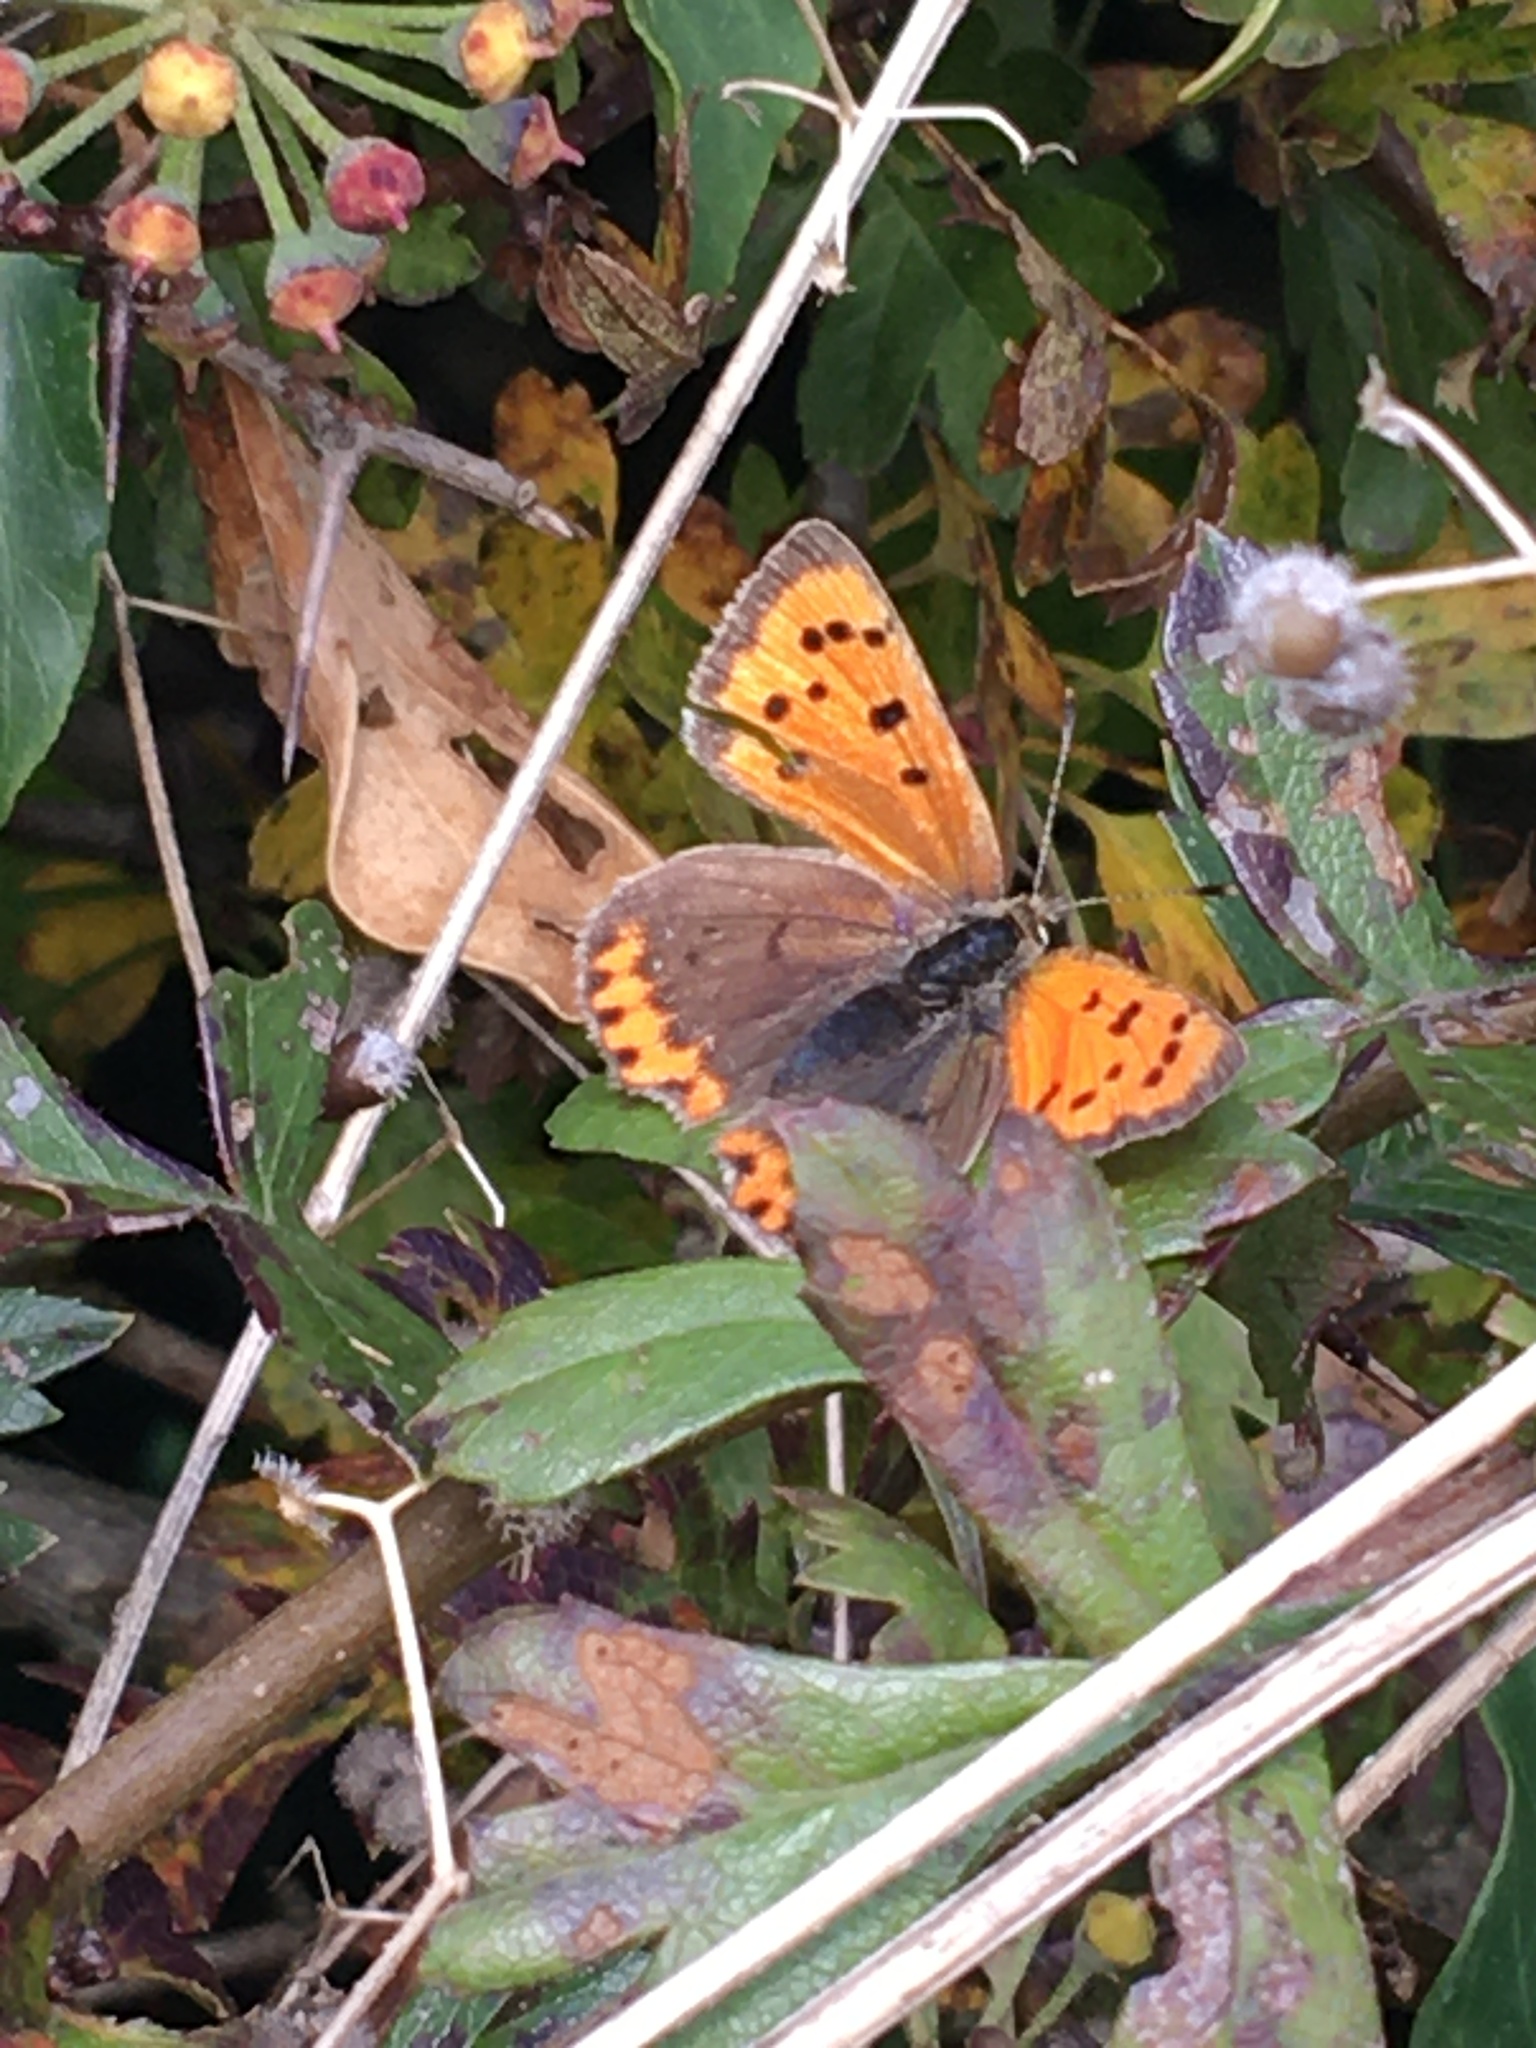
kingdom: Animalia
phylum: Arthropoda
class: Insecta
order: Lepidoptera
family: Lycaenidae
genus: Lycaena
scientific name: Lycaena phlaeas
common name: Small copper
